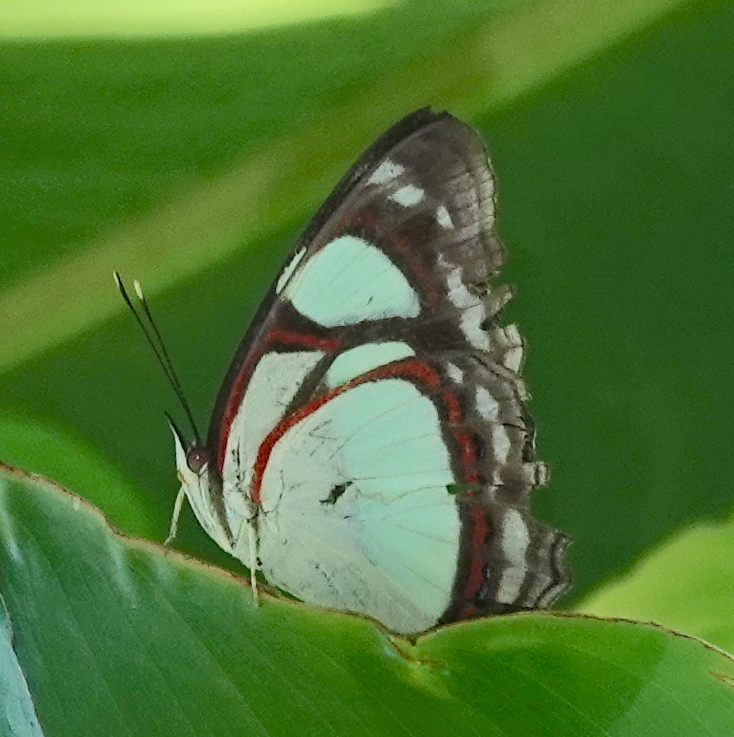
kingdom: Animalia
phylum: Arthropoda
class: Insecta
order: Lepidoptera
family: Nymphalidae
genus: Pyrrhogyra
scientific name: Pyrrhogyra neaerea
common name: Leading red-ring
